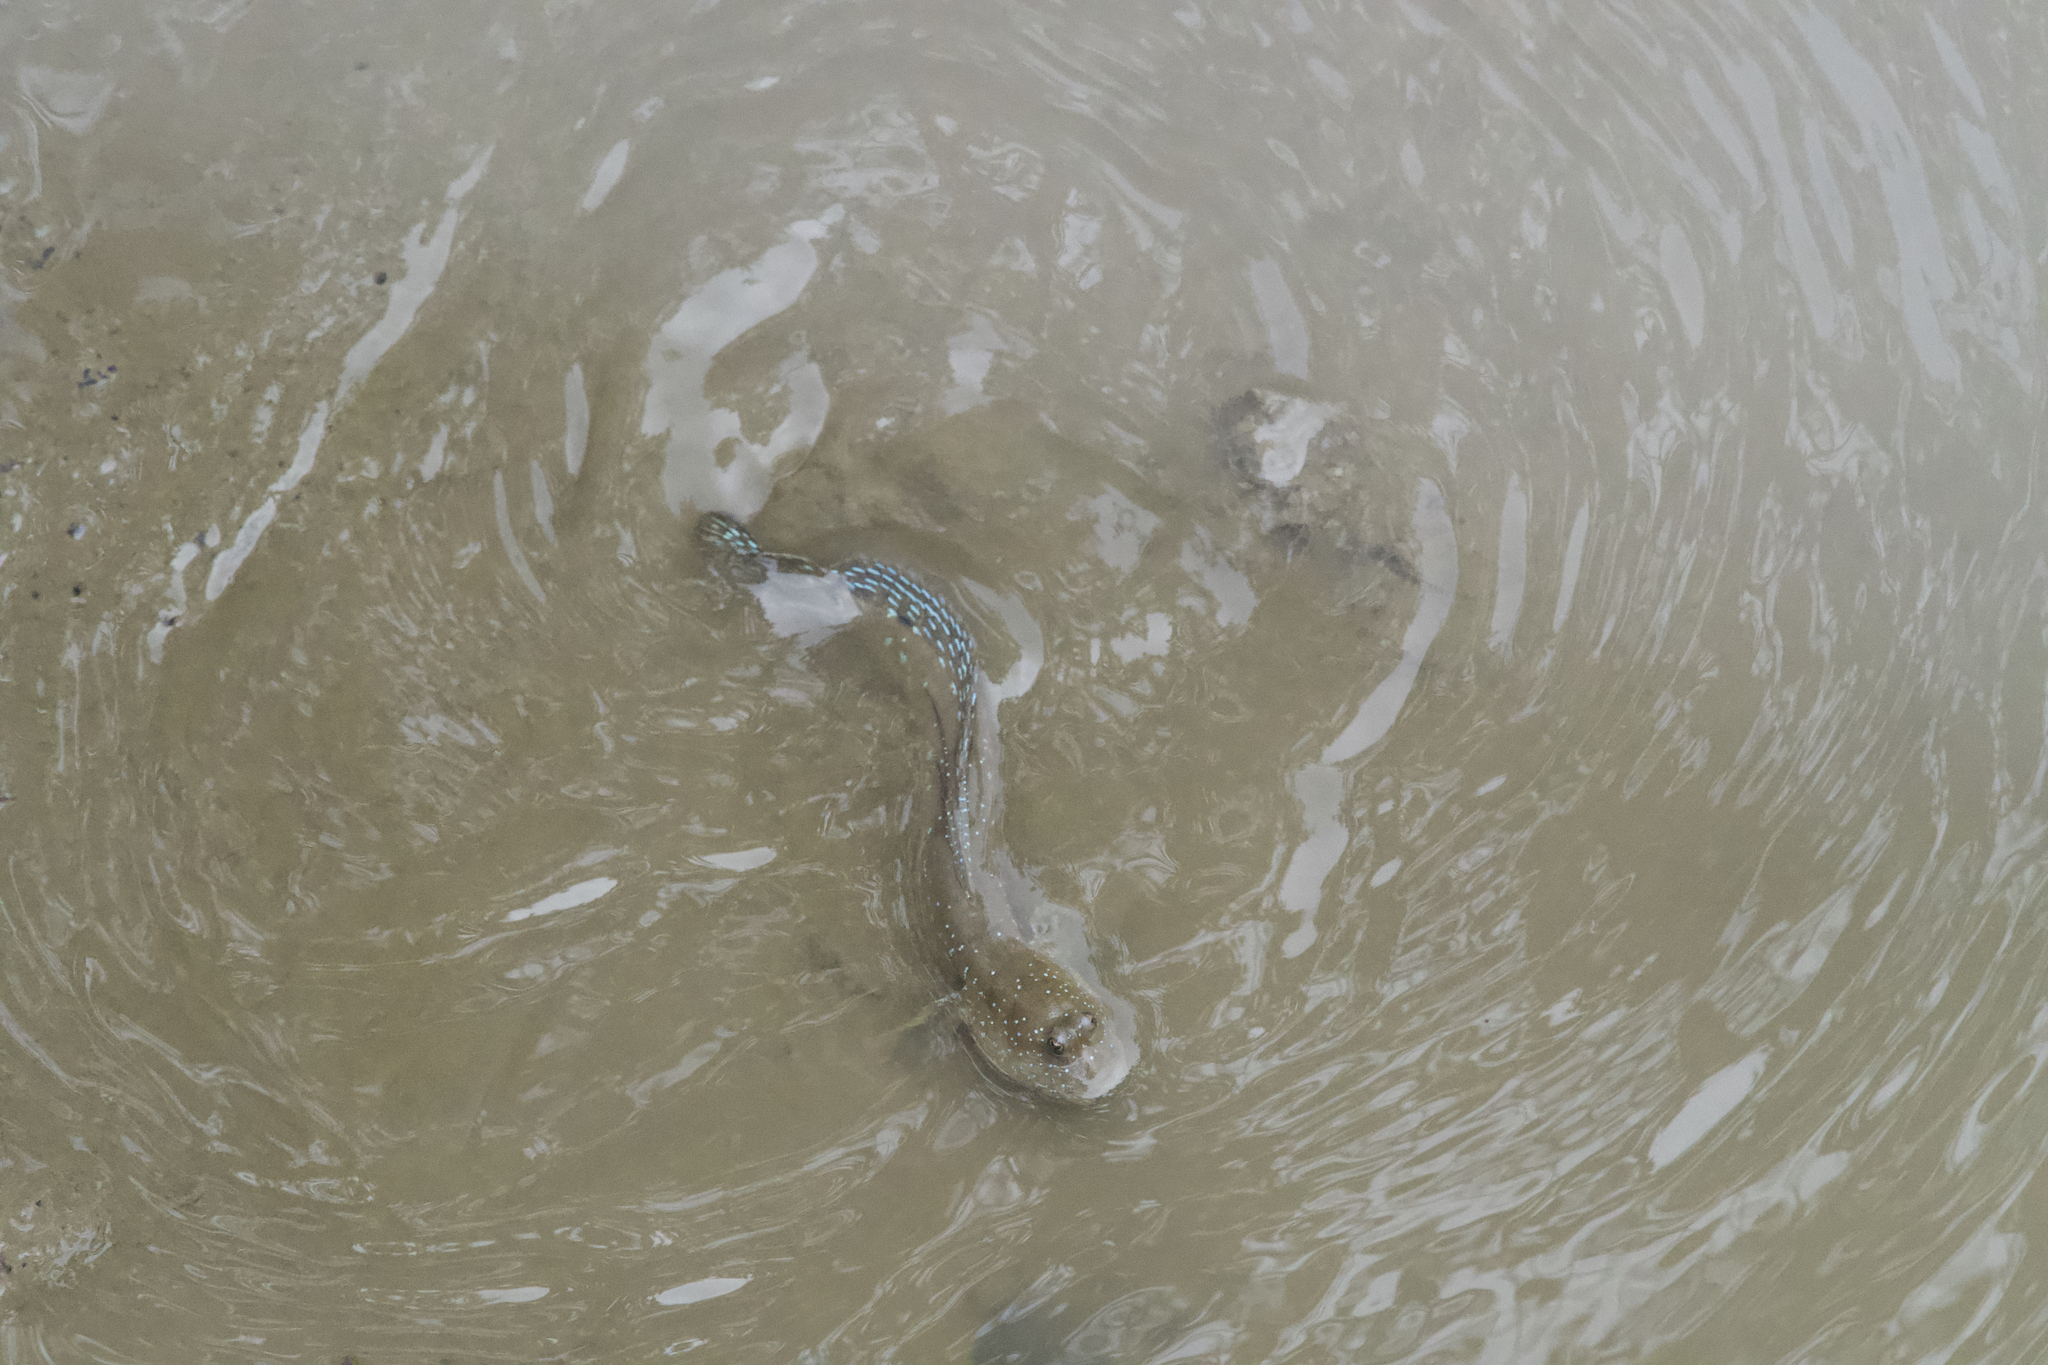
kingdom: Animalia
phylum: Chordata
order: Perciformes
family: Gobiidae
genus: Boleophthalmus
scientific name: Boleophthalmus pectinirostris
